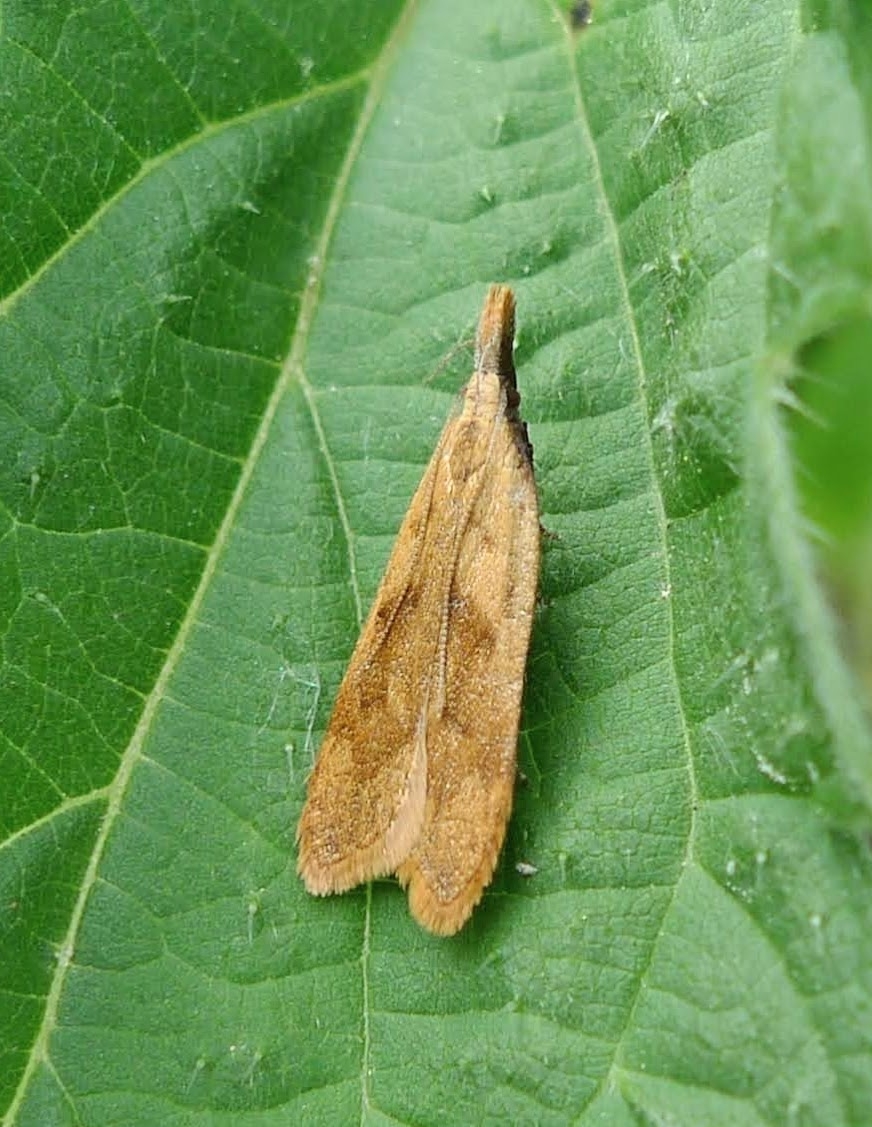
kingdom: Animalia
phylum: Arthropoda
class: Insecta
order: Lepidoptera
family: Gelechiidae
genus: Dichomeris
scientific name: Dichomeris derasella
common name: Blackthorn crest
